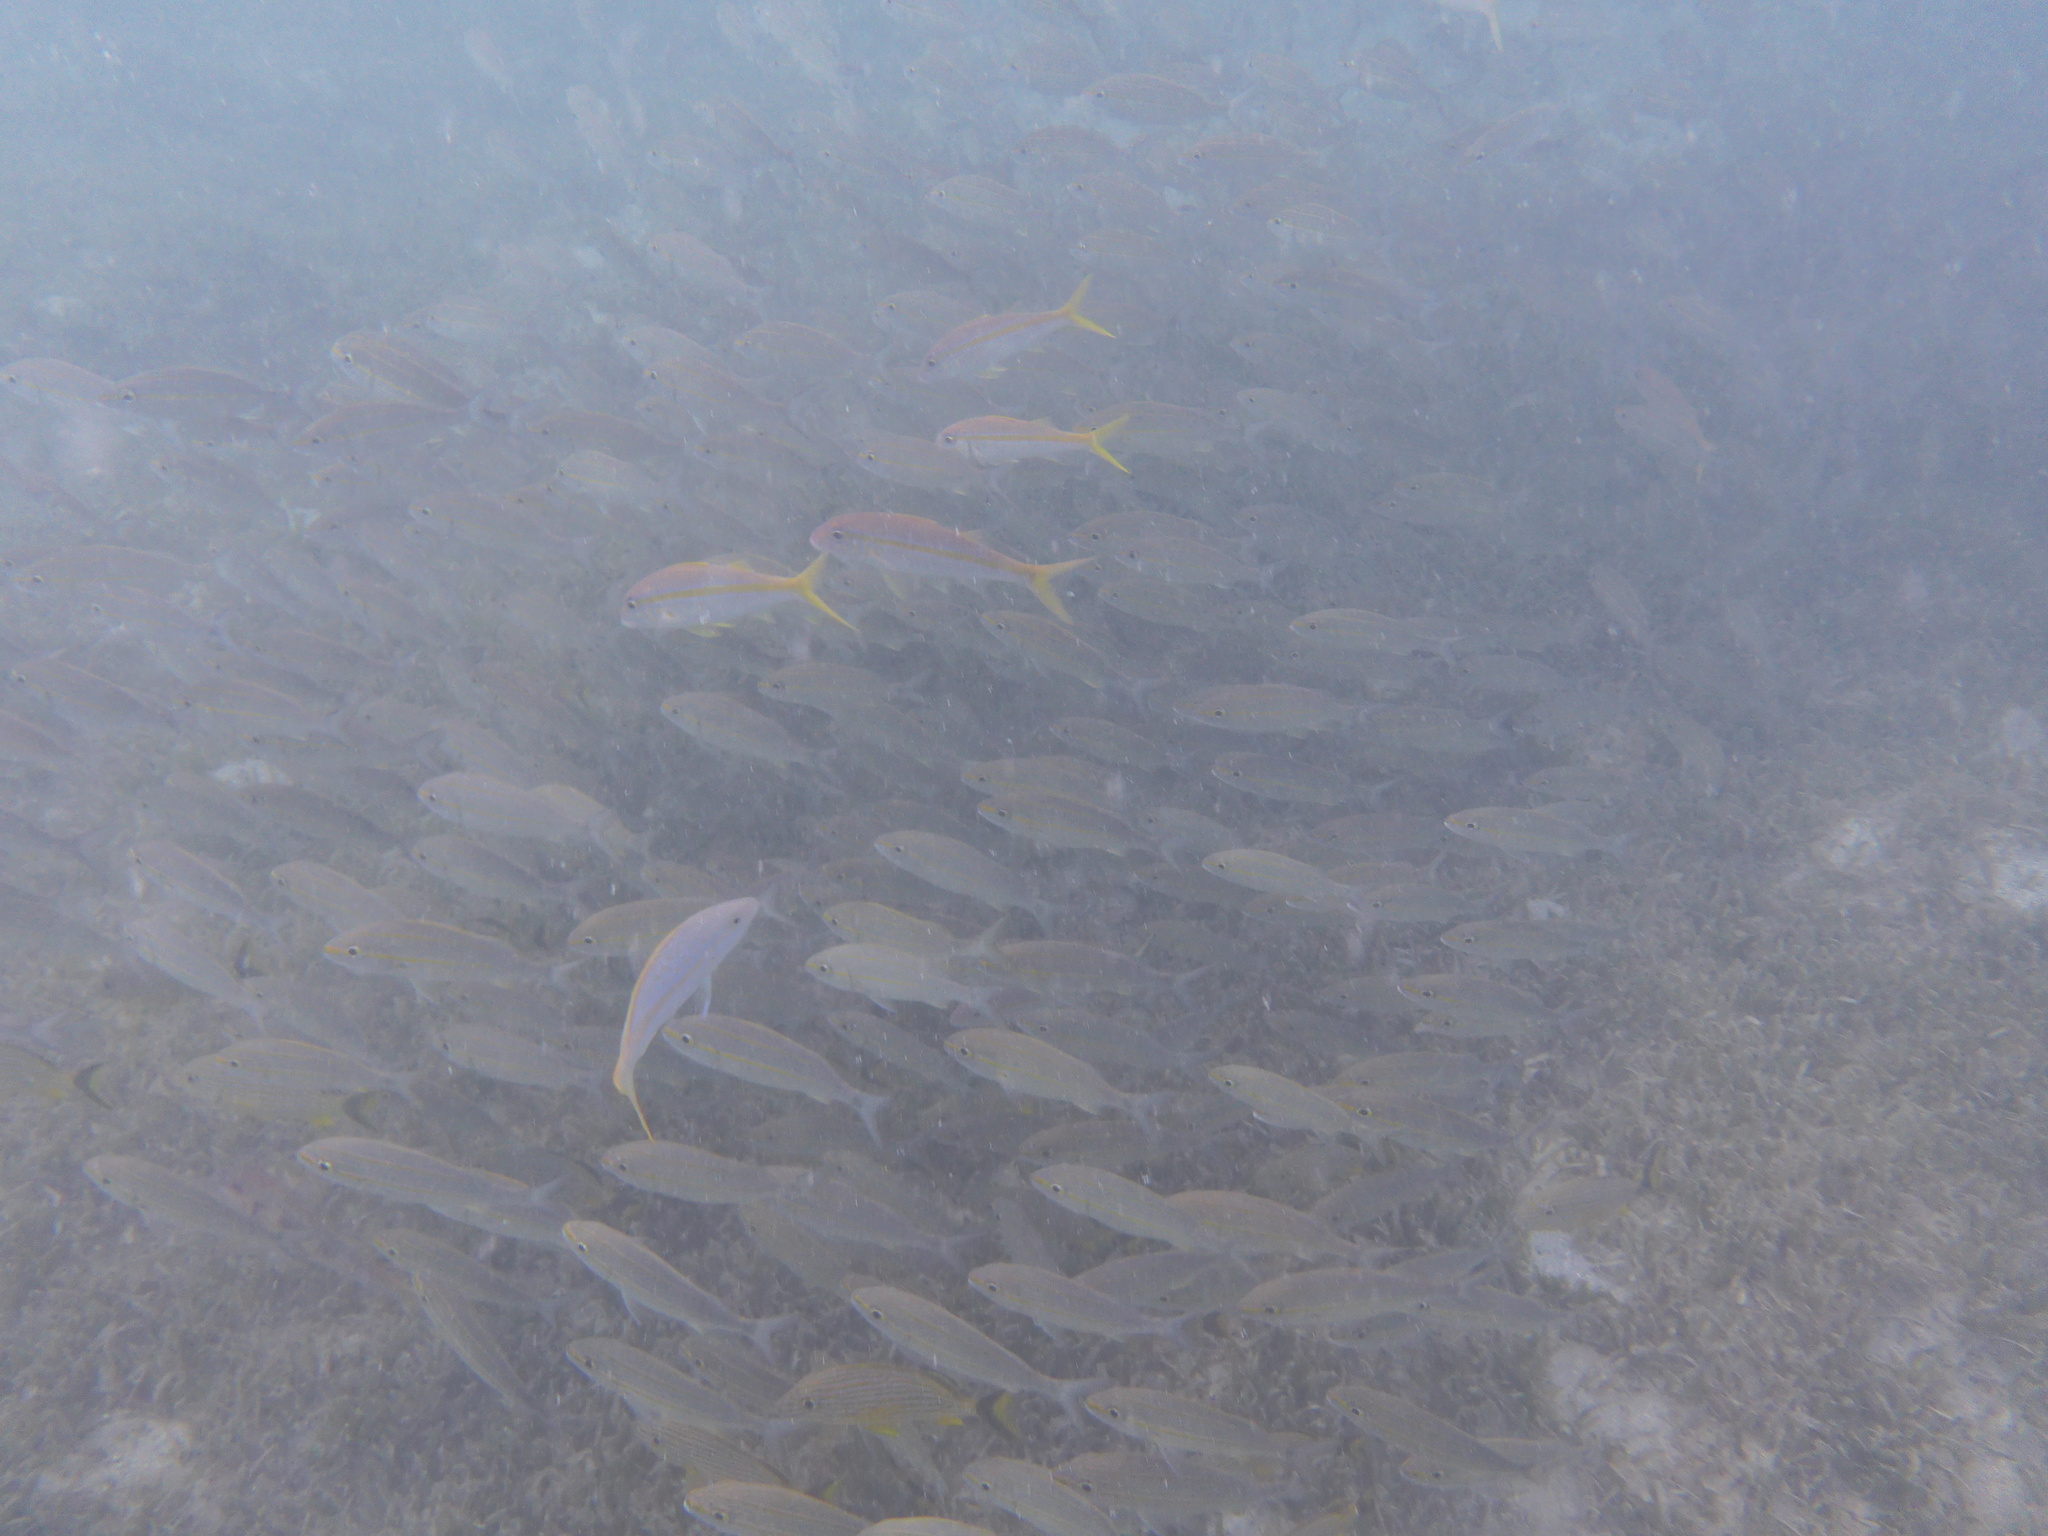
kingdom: Animalia
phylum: Chordata
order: Perciformes
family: Lutjanidae
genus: Ocyurus
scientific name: Ocyurus chrysurus
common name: Yellowtail snapper
